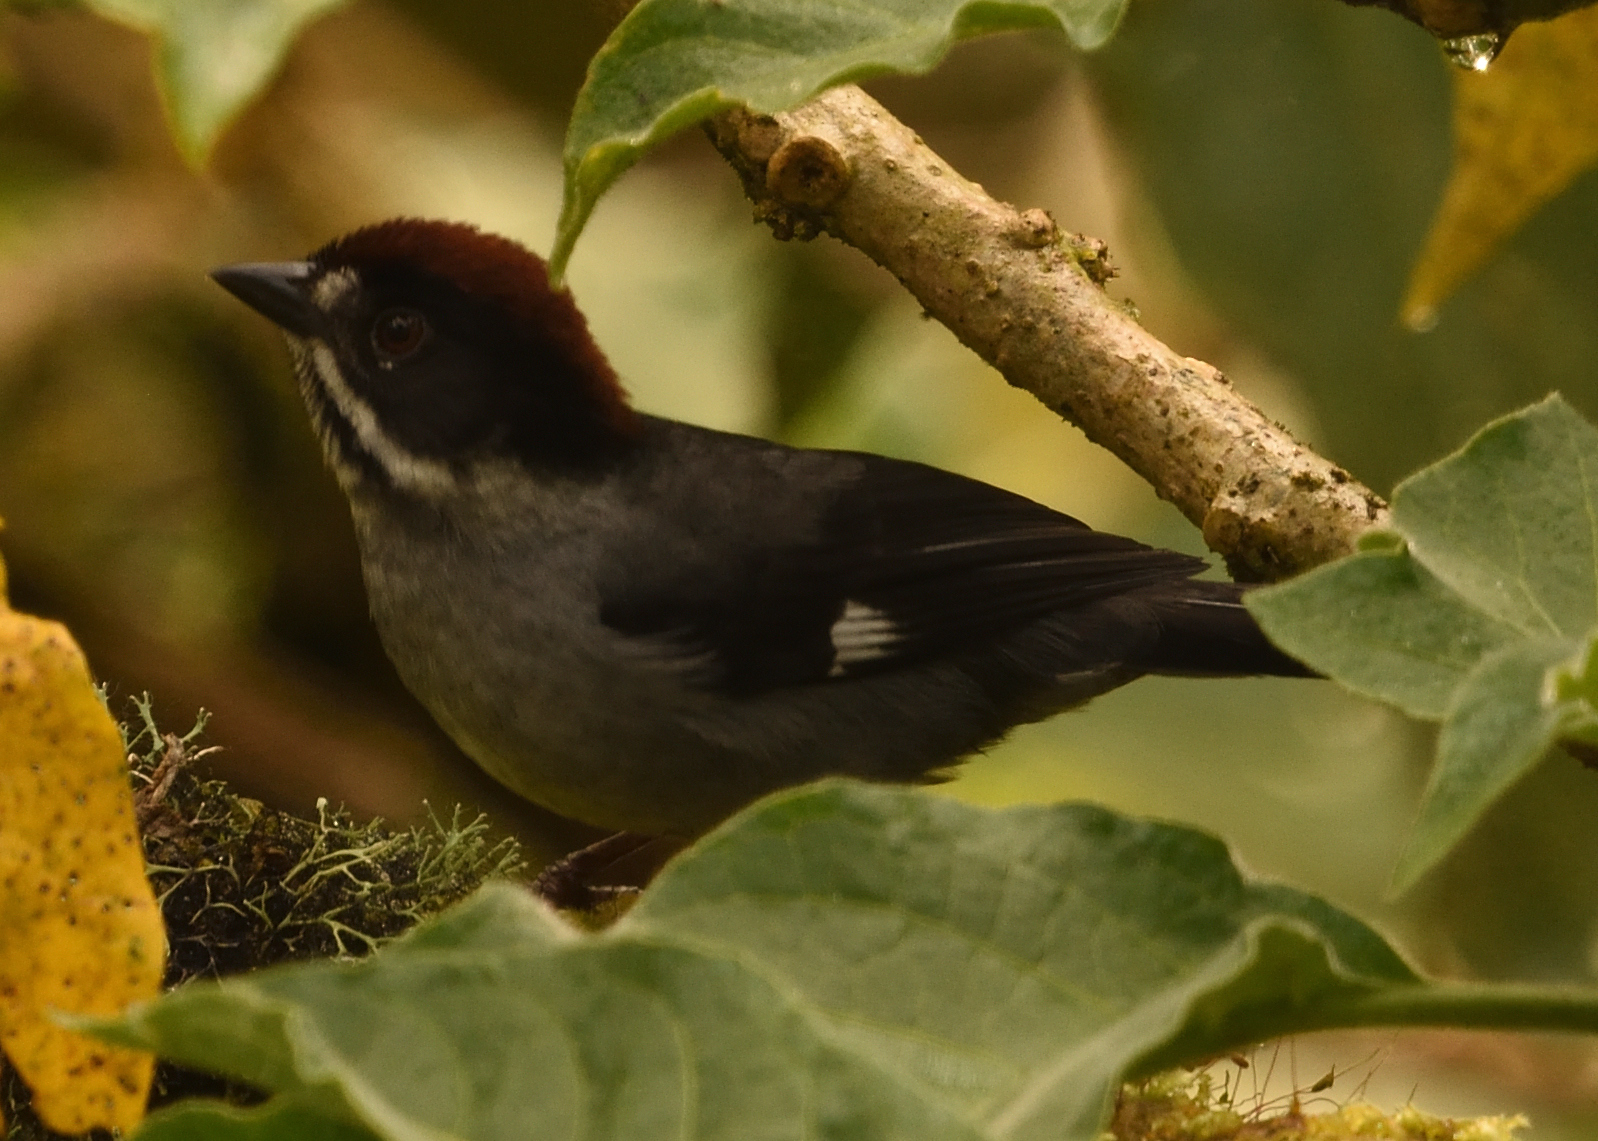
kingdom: Animalia
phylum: Chordata
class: Aves
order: Passeriformes
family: Passerellidae
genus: Atlapetes
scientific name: Atlapetes schistaceus
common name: Slaty brushfinch
